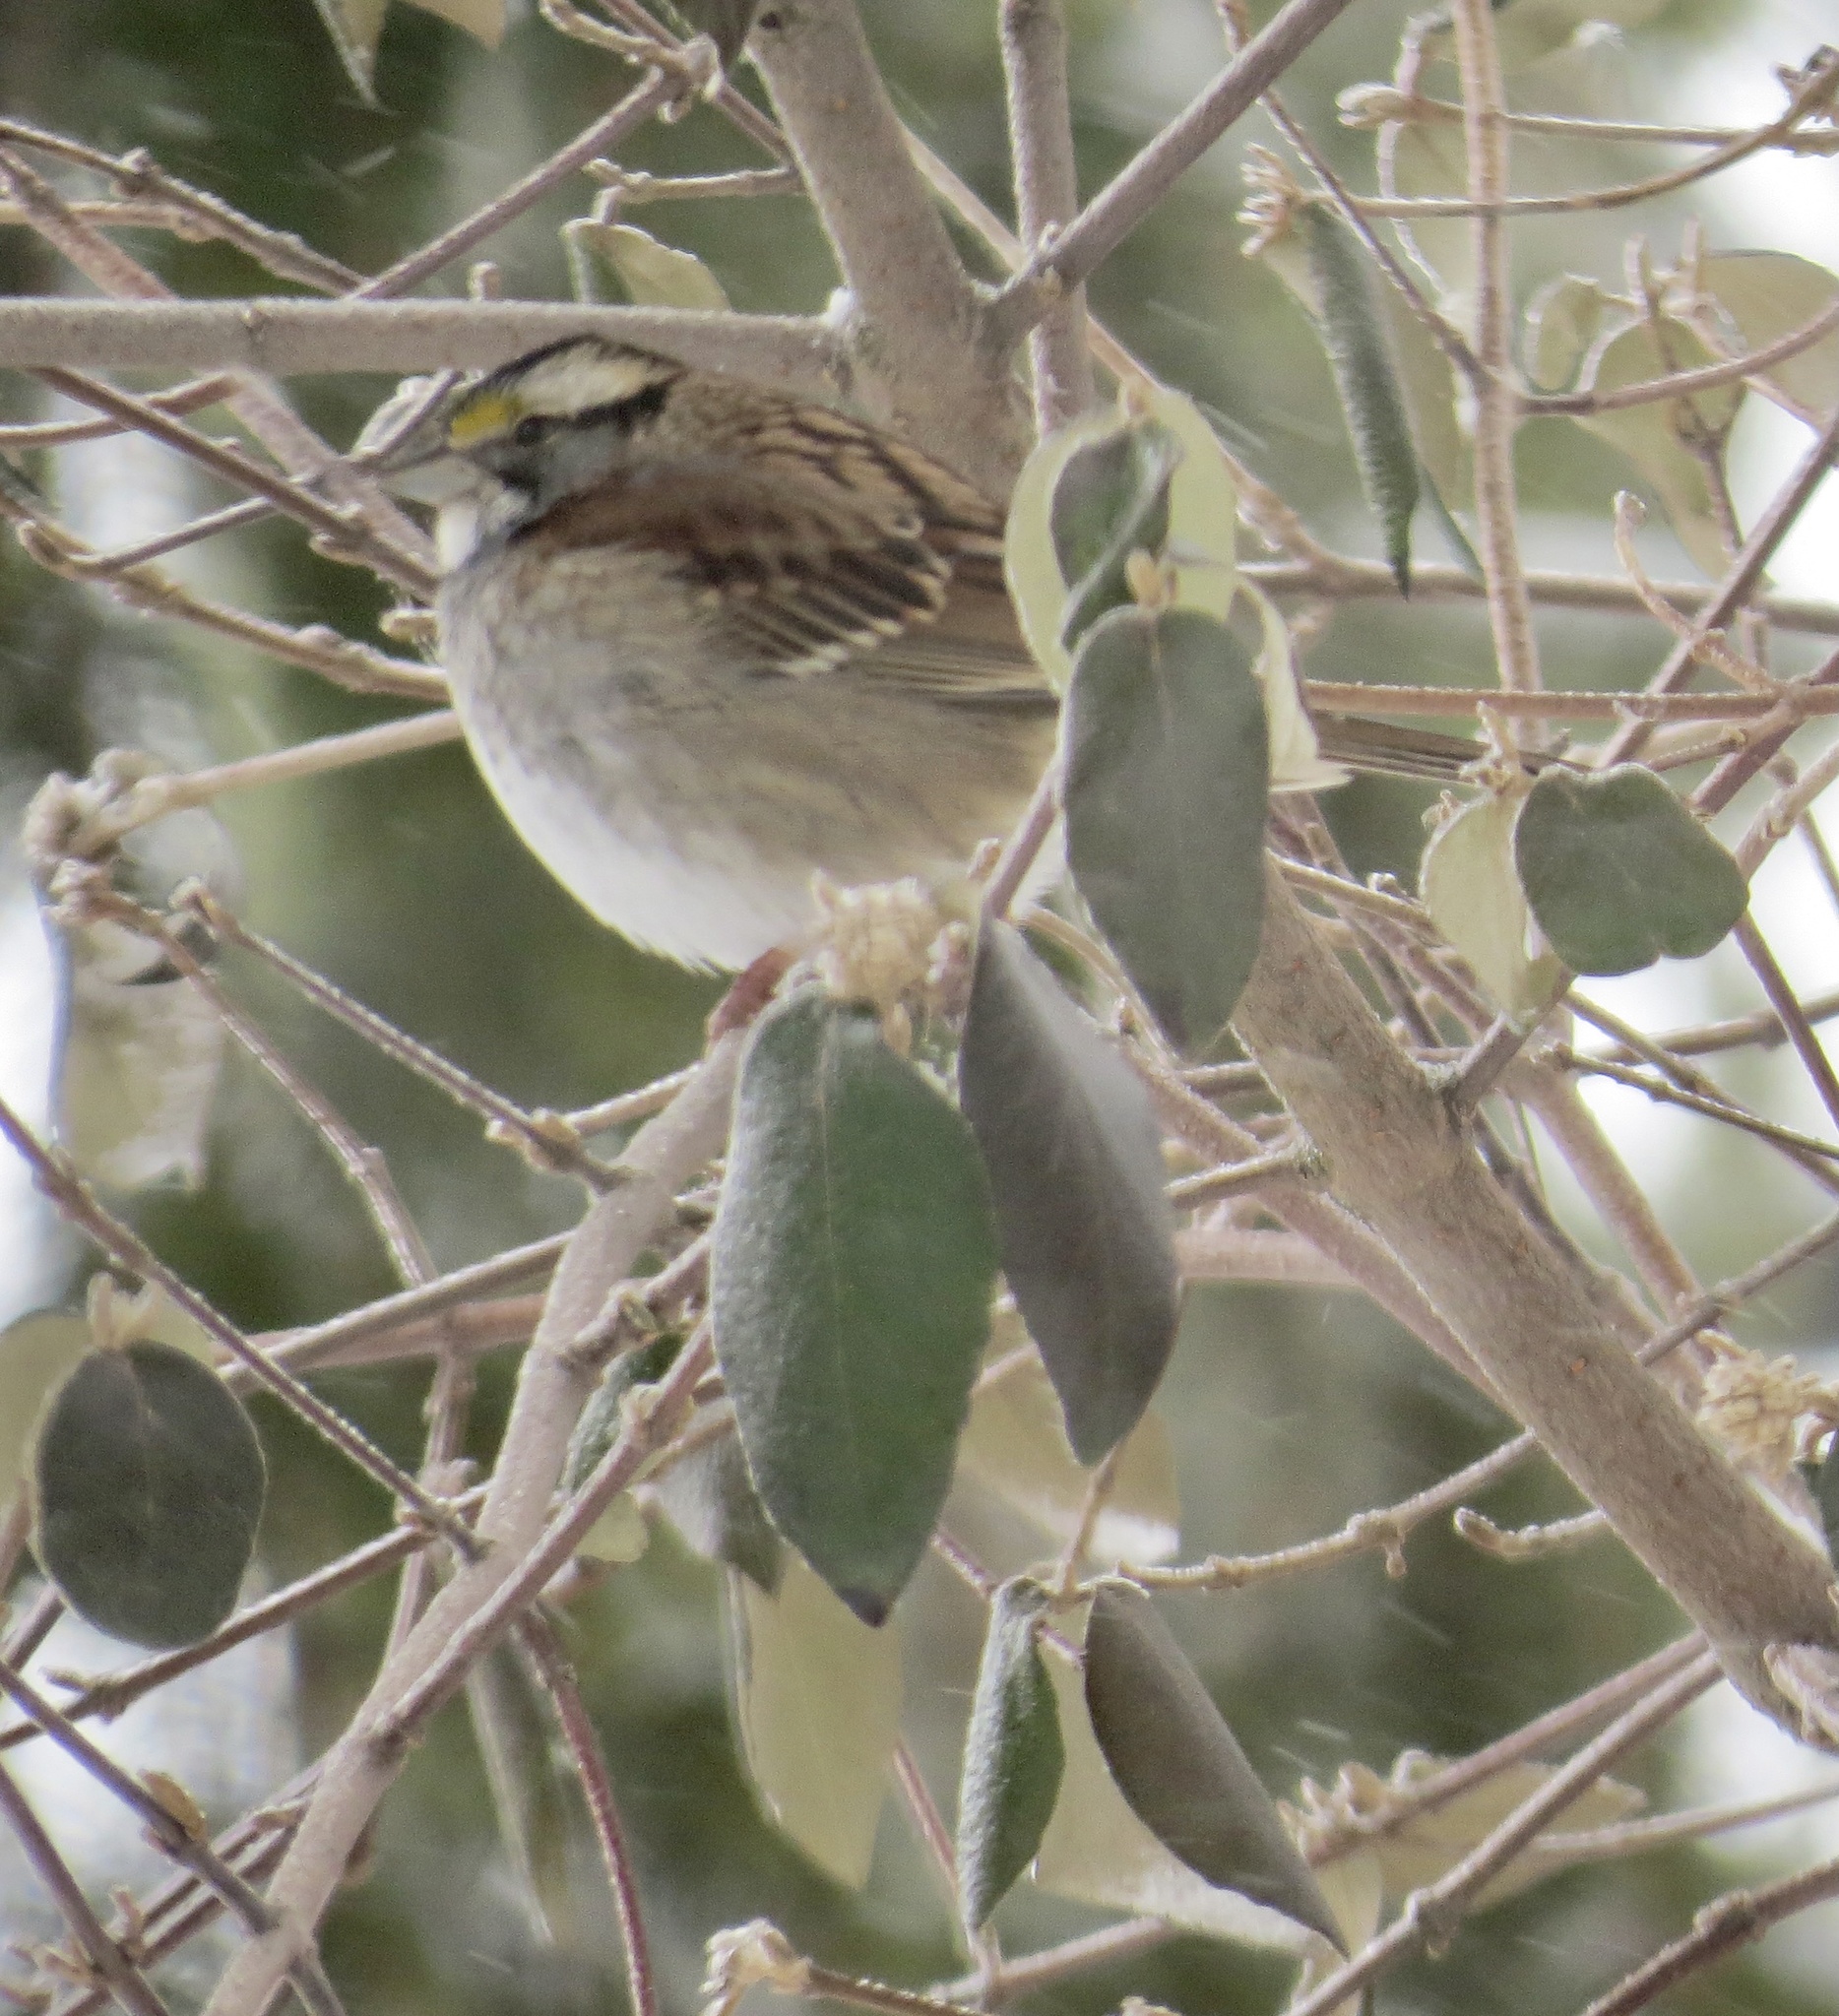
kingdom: Animalia
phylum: Chordata
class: Aves
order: Passeriformes
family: Passerellidae
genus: Zonotrichia
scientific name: Zonotrichia albicollis
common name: White-throated sparrow
